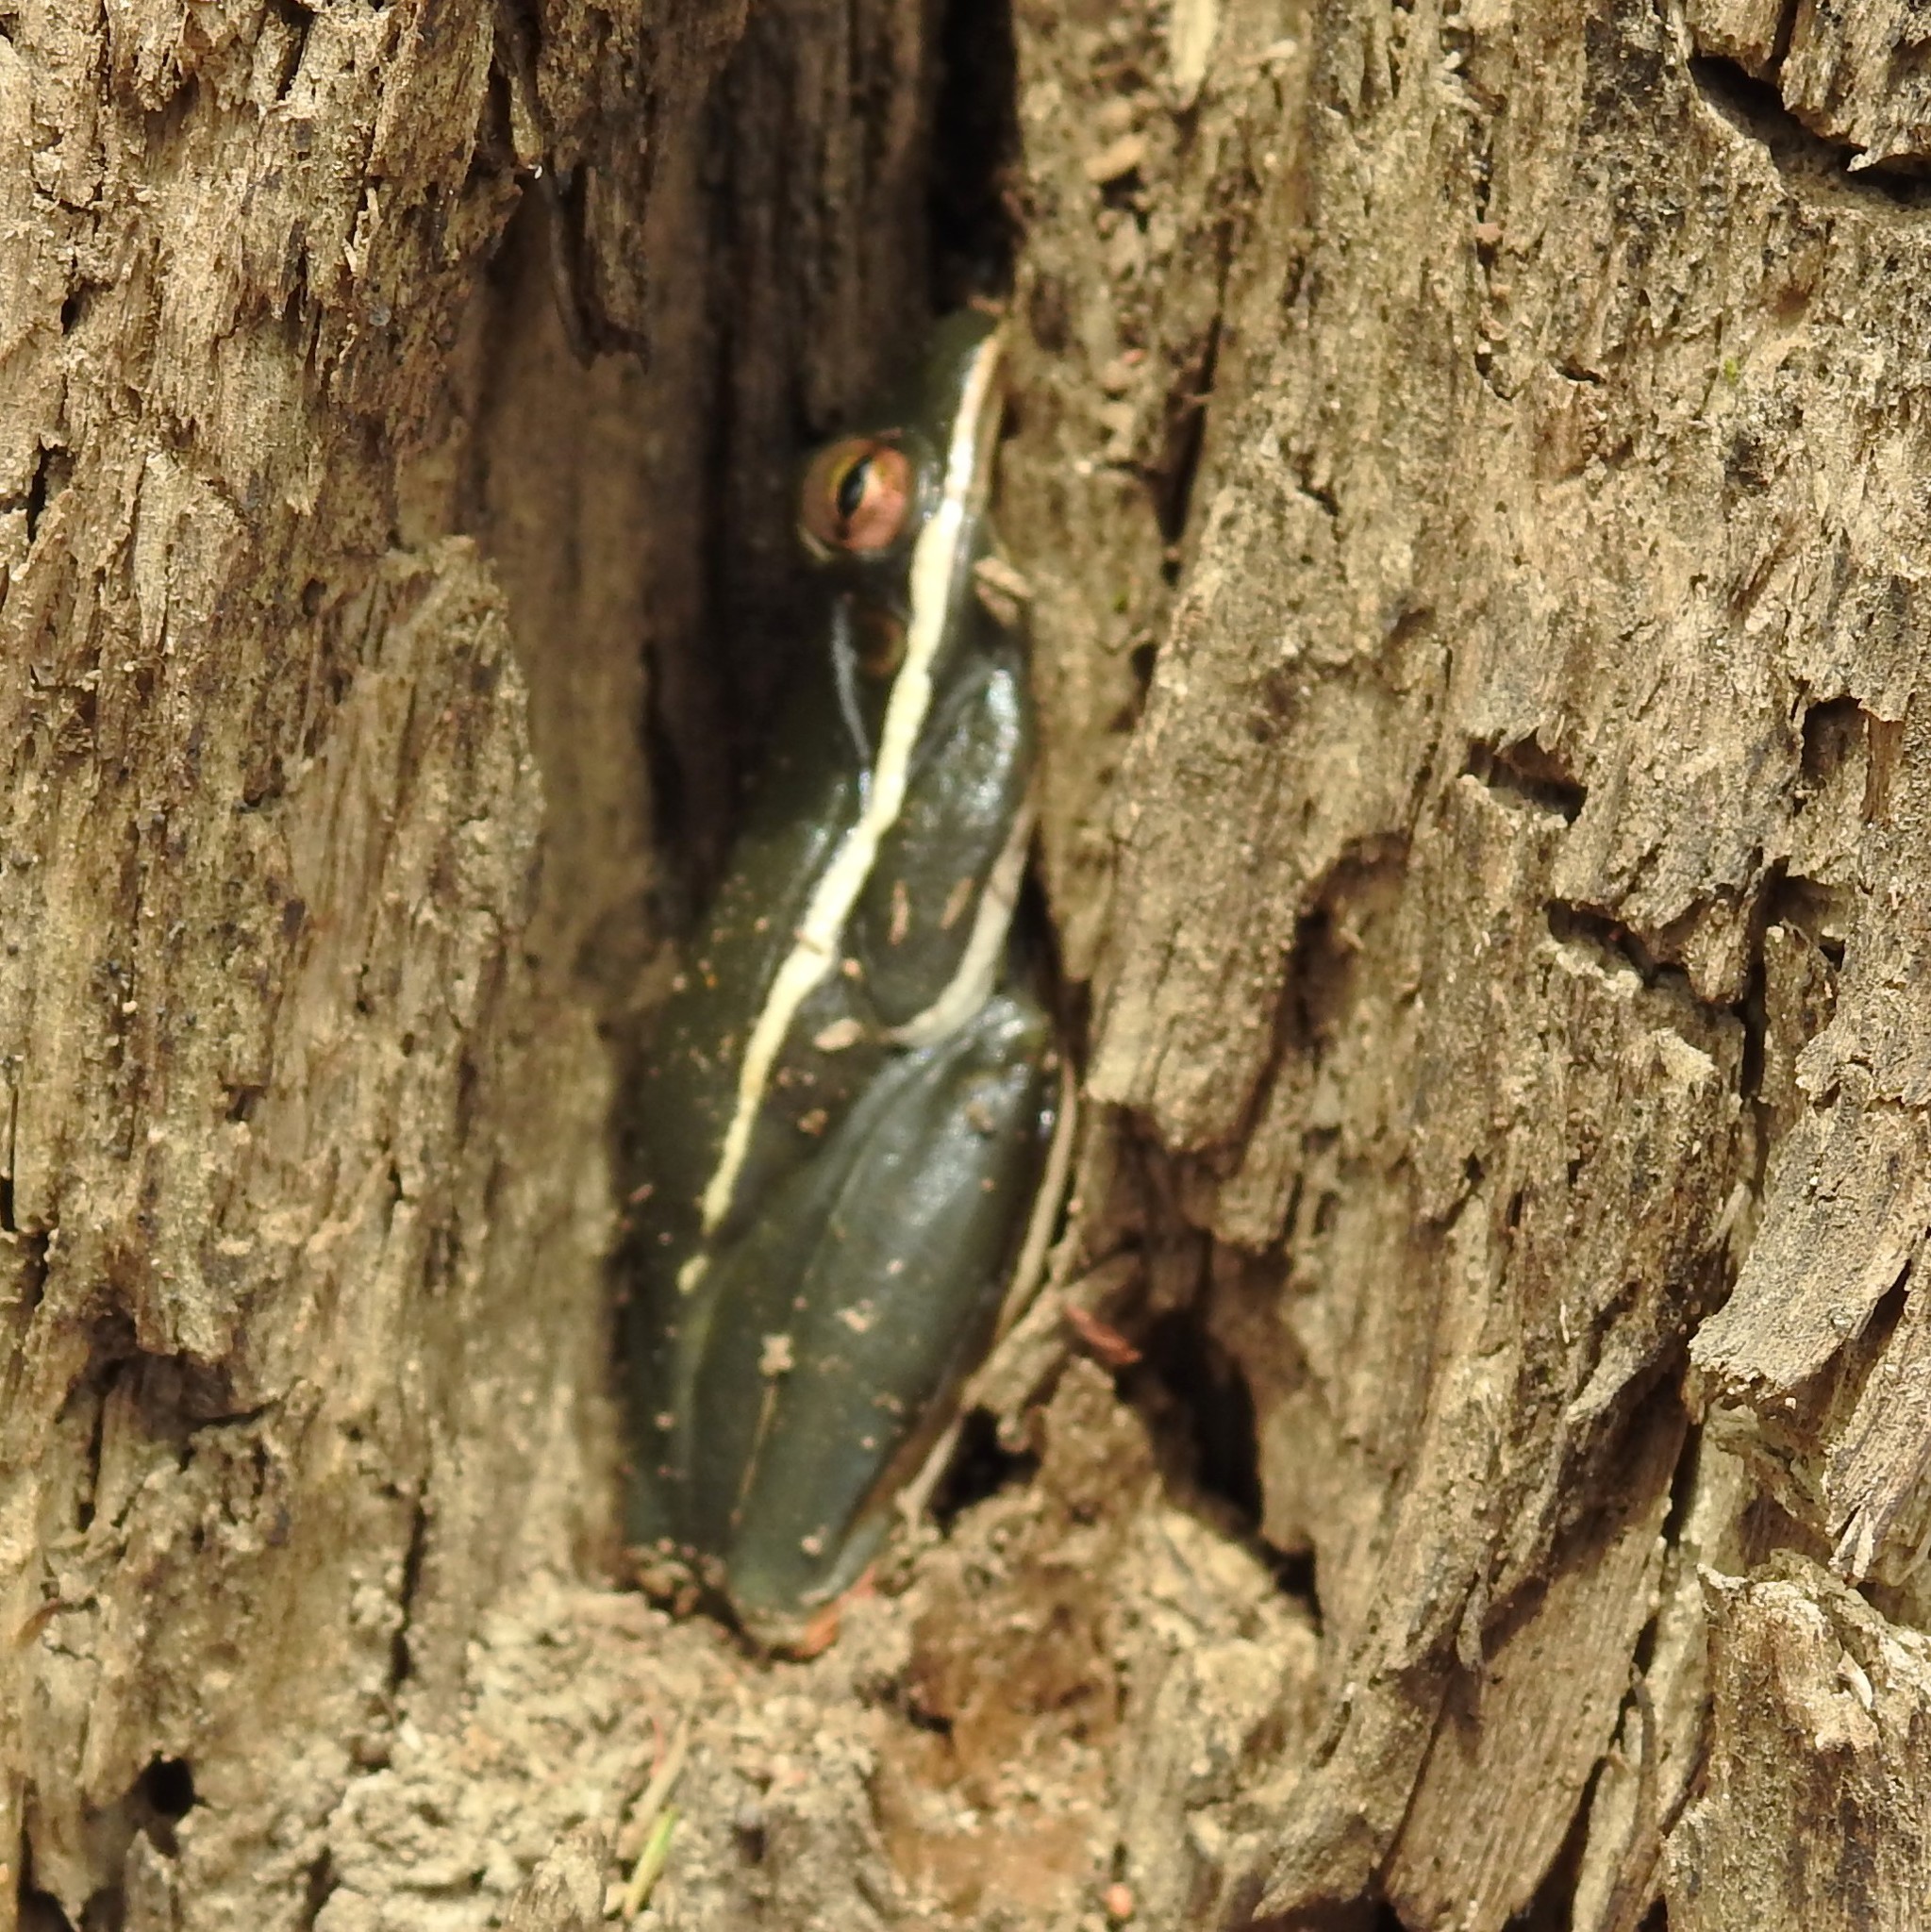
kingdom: Animalia
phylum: Chordata
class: Amphibia
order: Anura
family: Hylidae
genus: Dryophytes
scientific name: Dryophytes cinereus
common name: Green treefrog
